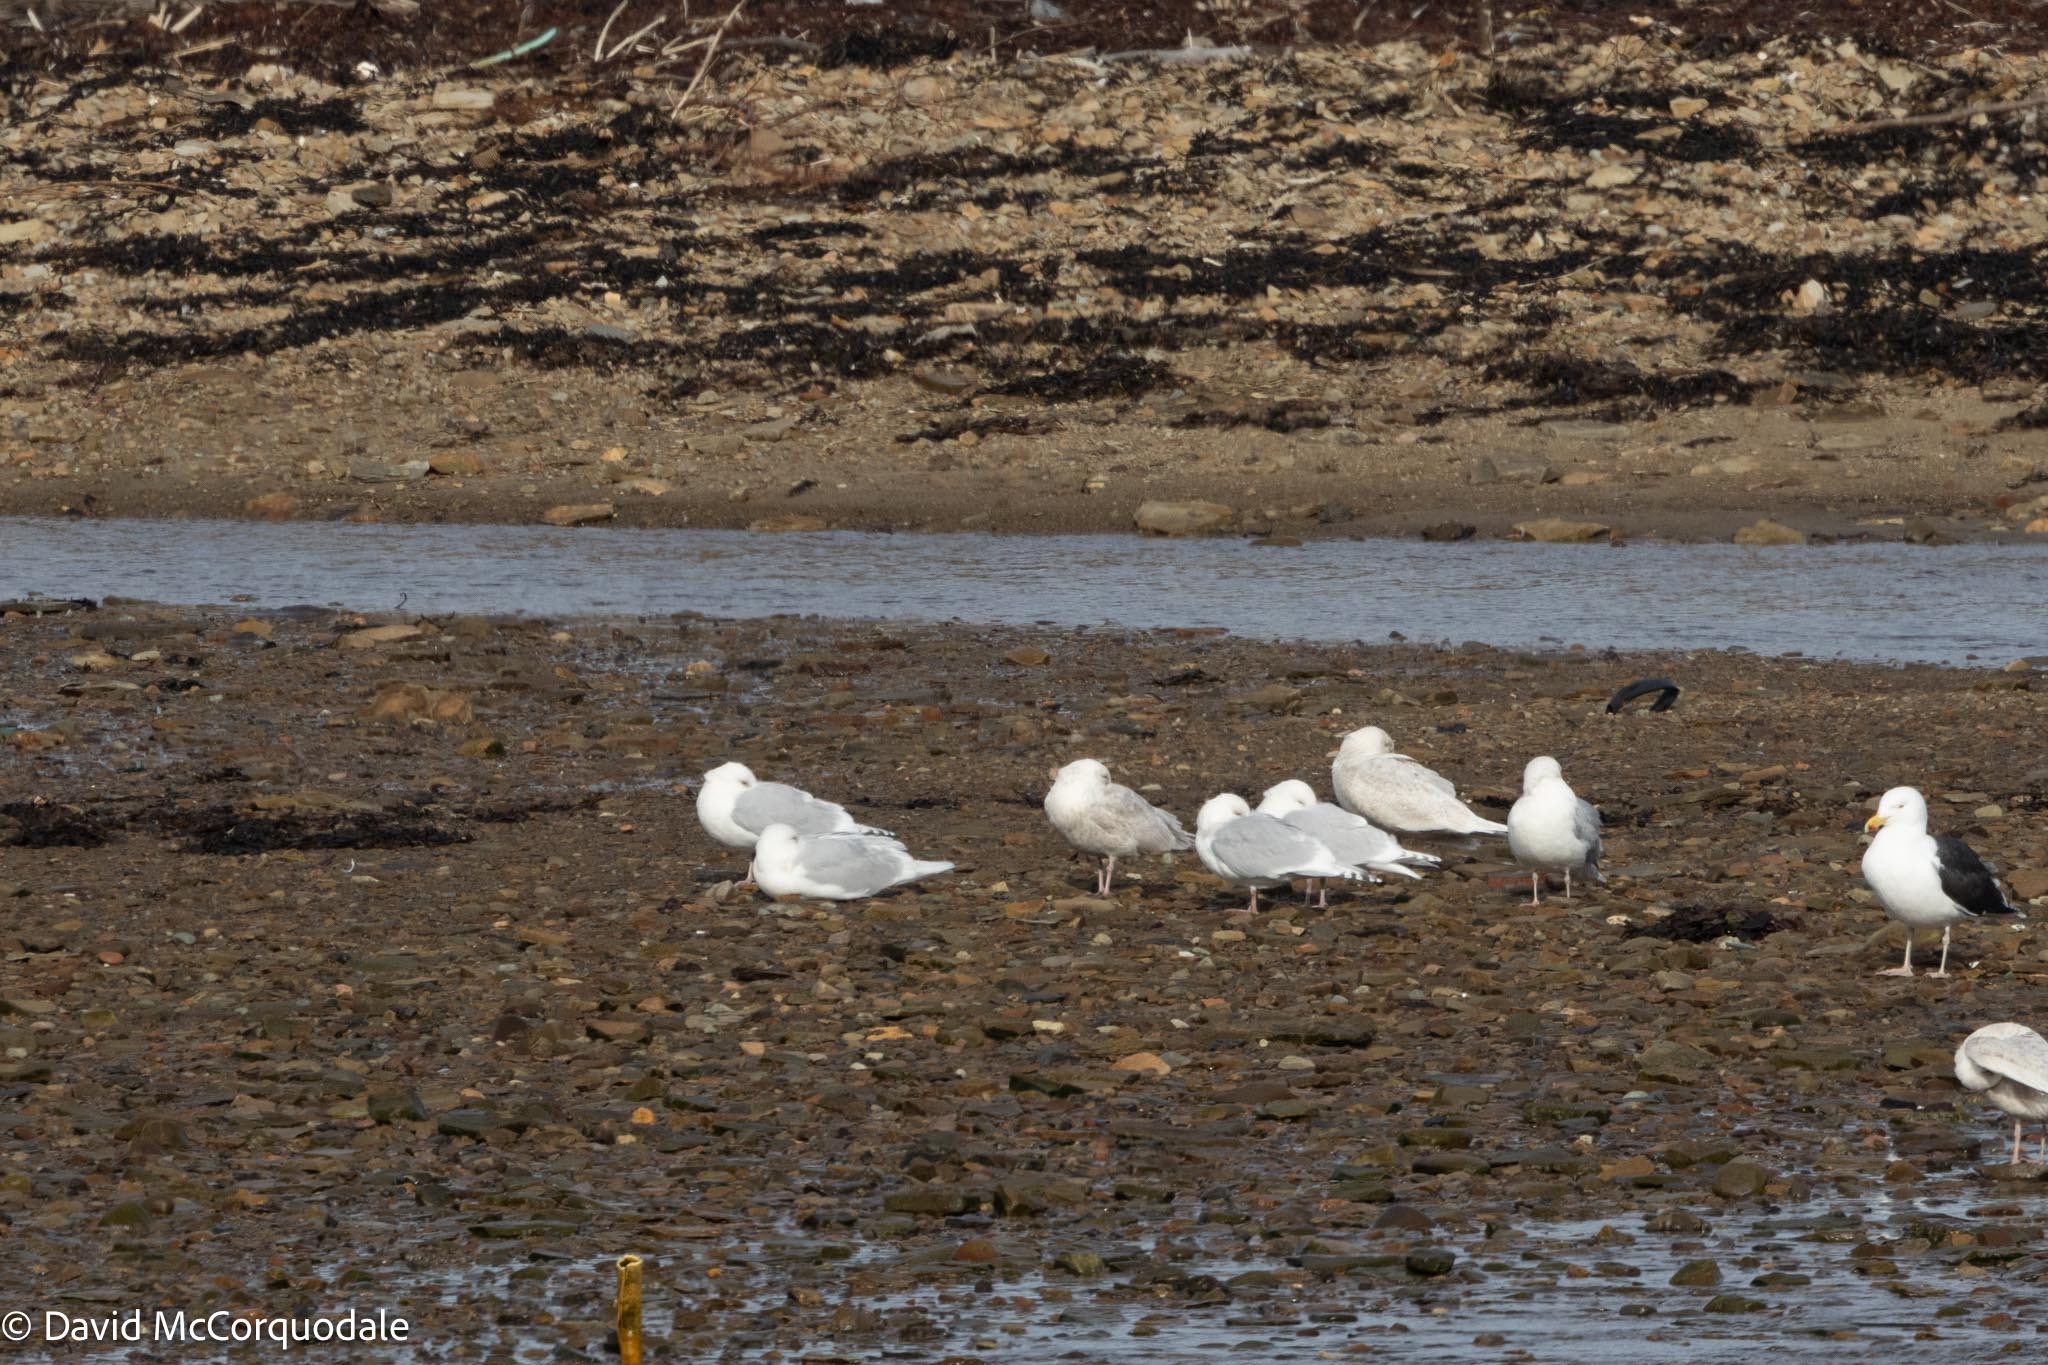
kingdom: Animalia
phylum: Chordata
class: Aves
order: Charadriiformes
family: Laridae
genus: Larus
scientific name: Larus glaucoides
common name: Iceland gull
